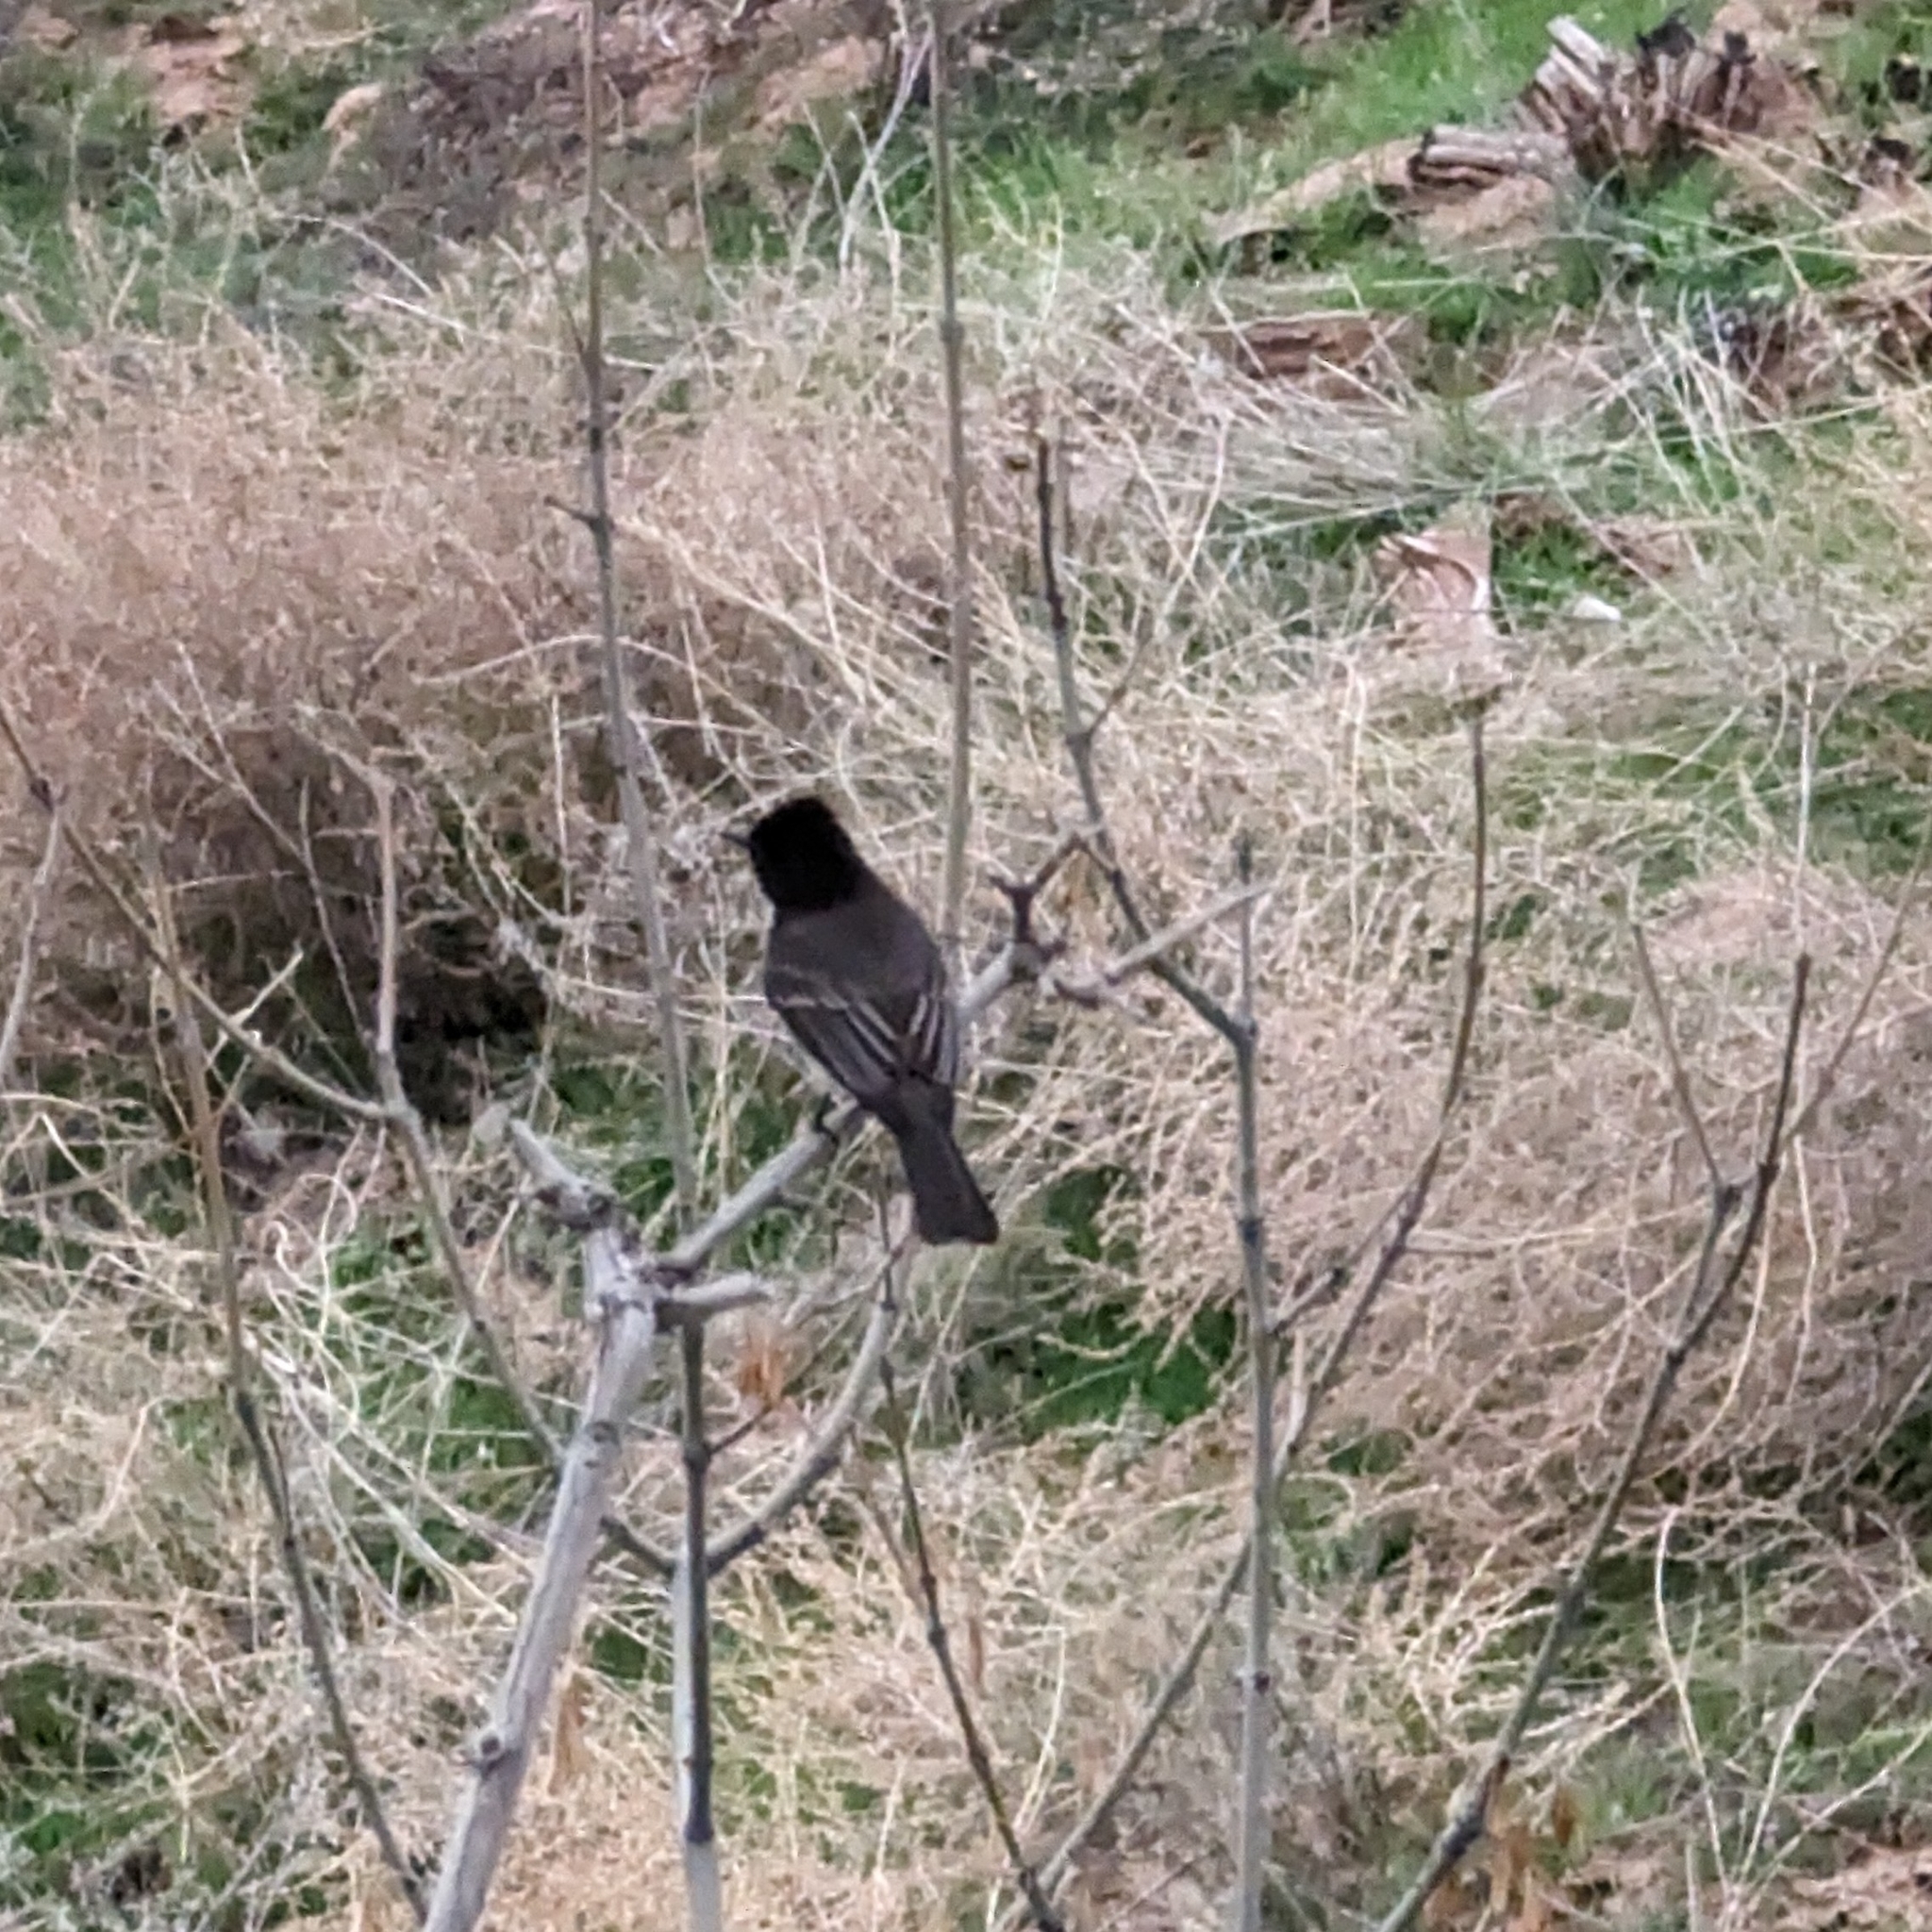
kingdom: Animalia
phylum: Chordata
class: Aves
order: Passeriformes
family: Tyrannidae
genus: Sayornis
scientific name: Sayornis nigricans
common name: Black phoebe
